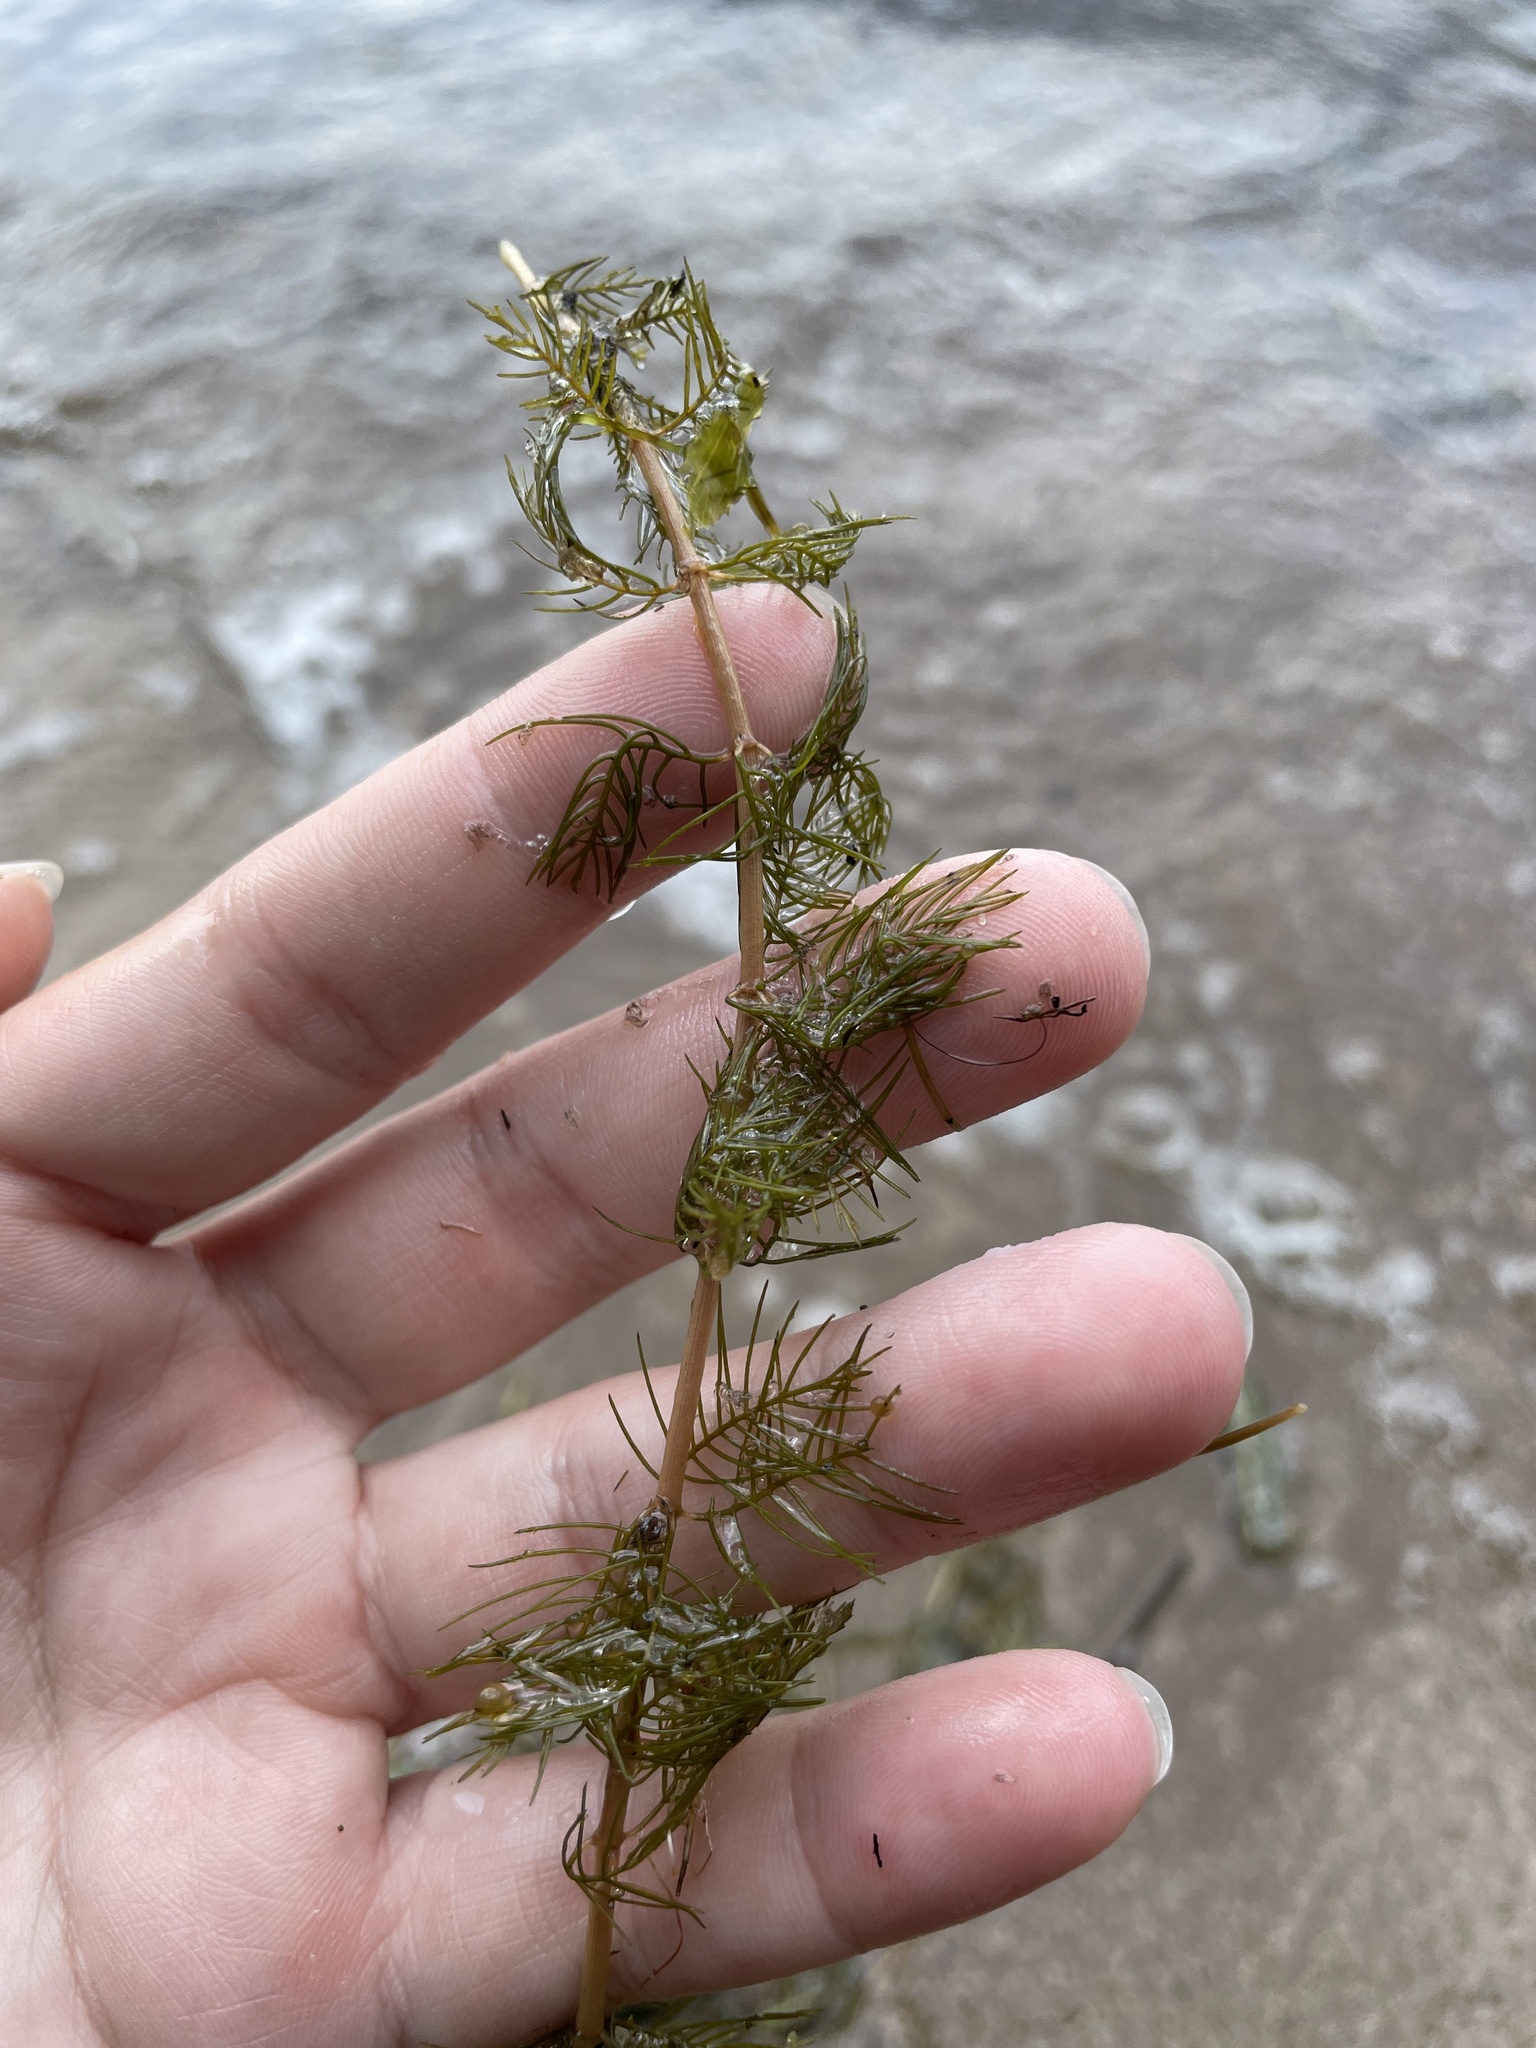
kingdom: Plantae
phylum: Tracheophyta
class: Magnoliopsida
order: Saxifragales
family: Haloragaceae
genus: Myriophyllum
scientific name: Myriophyllum sibiricum
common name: Siberian water-milfoil
